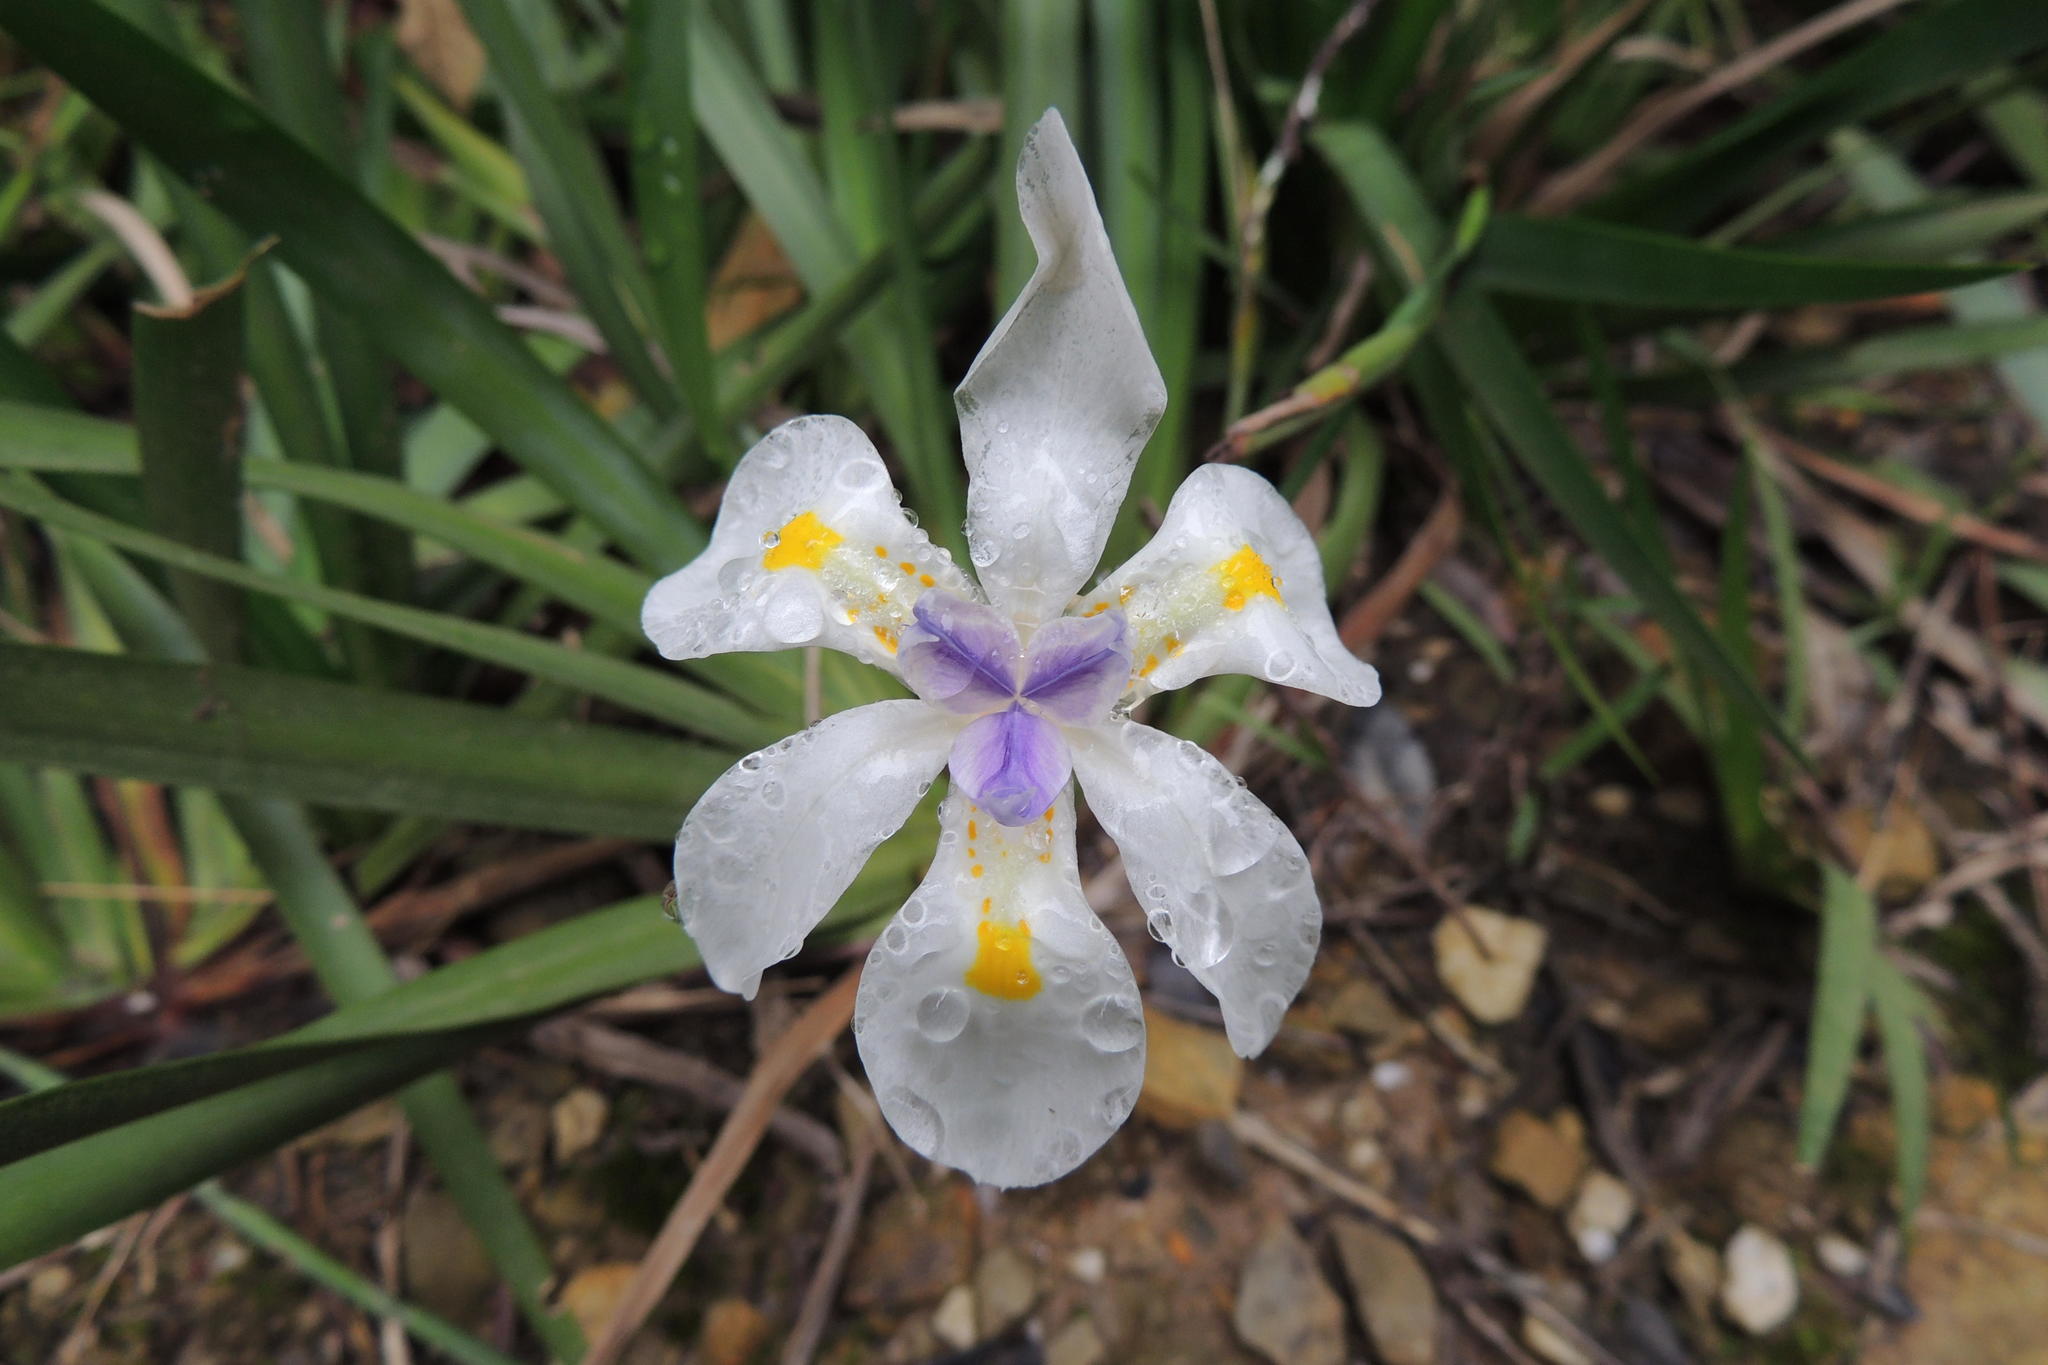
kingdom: Plantae
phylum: Tracheophyta
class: Liliopsida
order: Asparagales
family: Iridaceae
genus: Dietes
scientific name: Dietes iridioides
